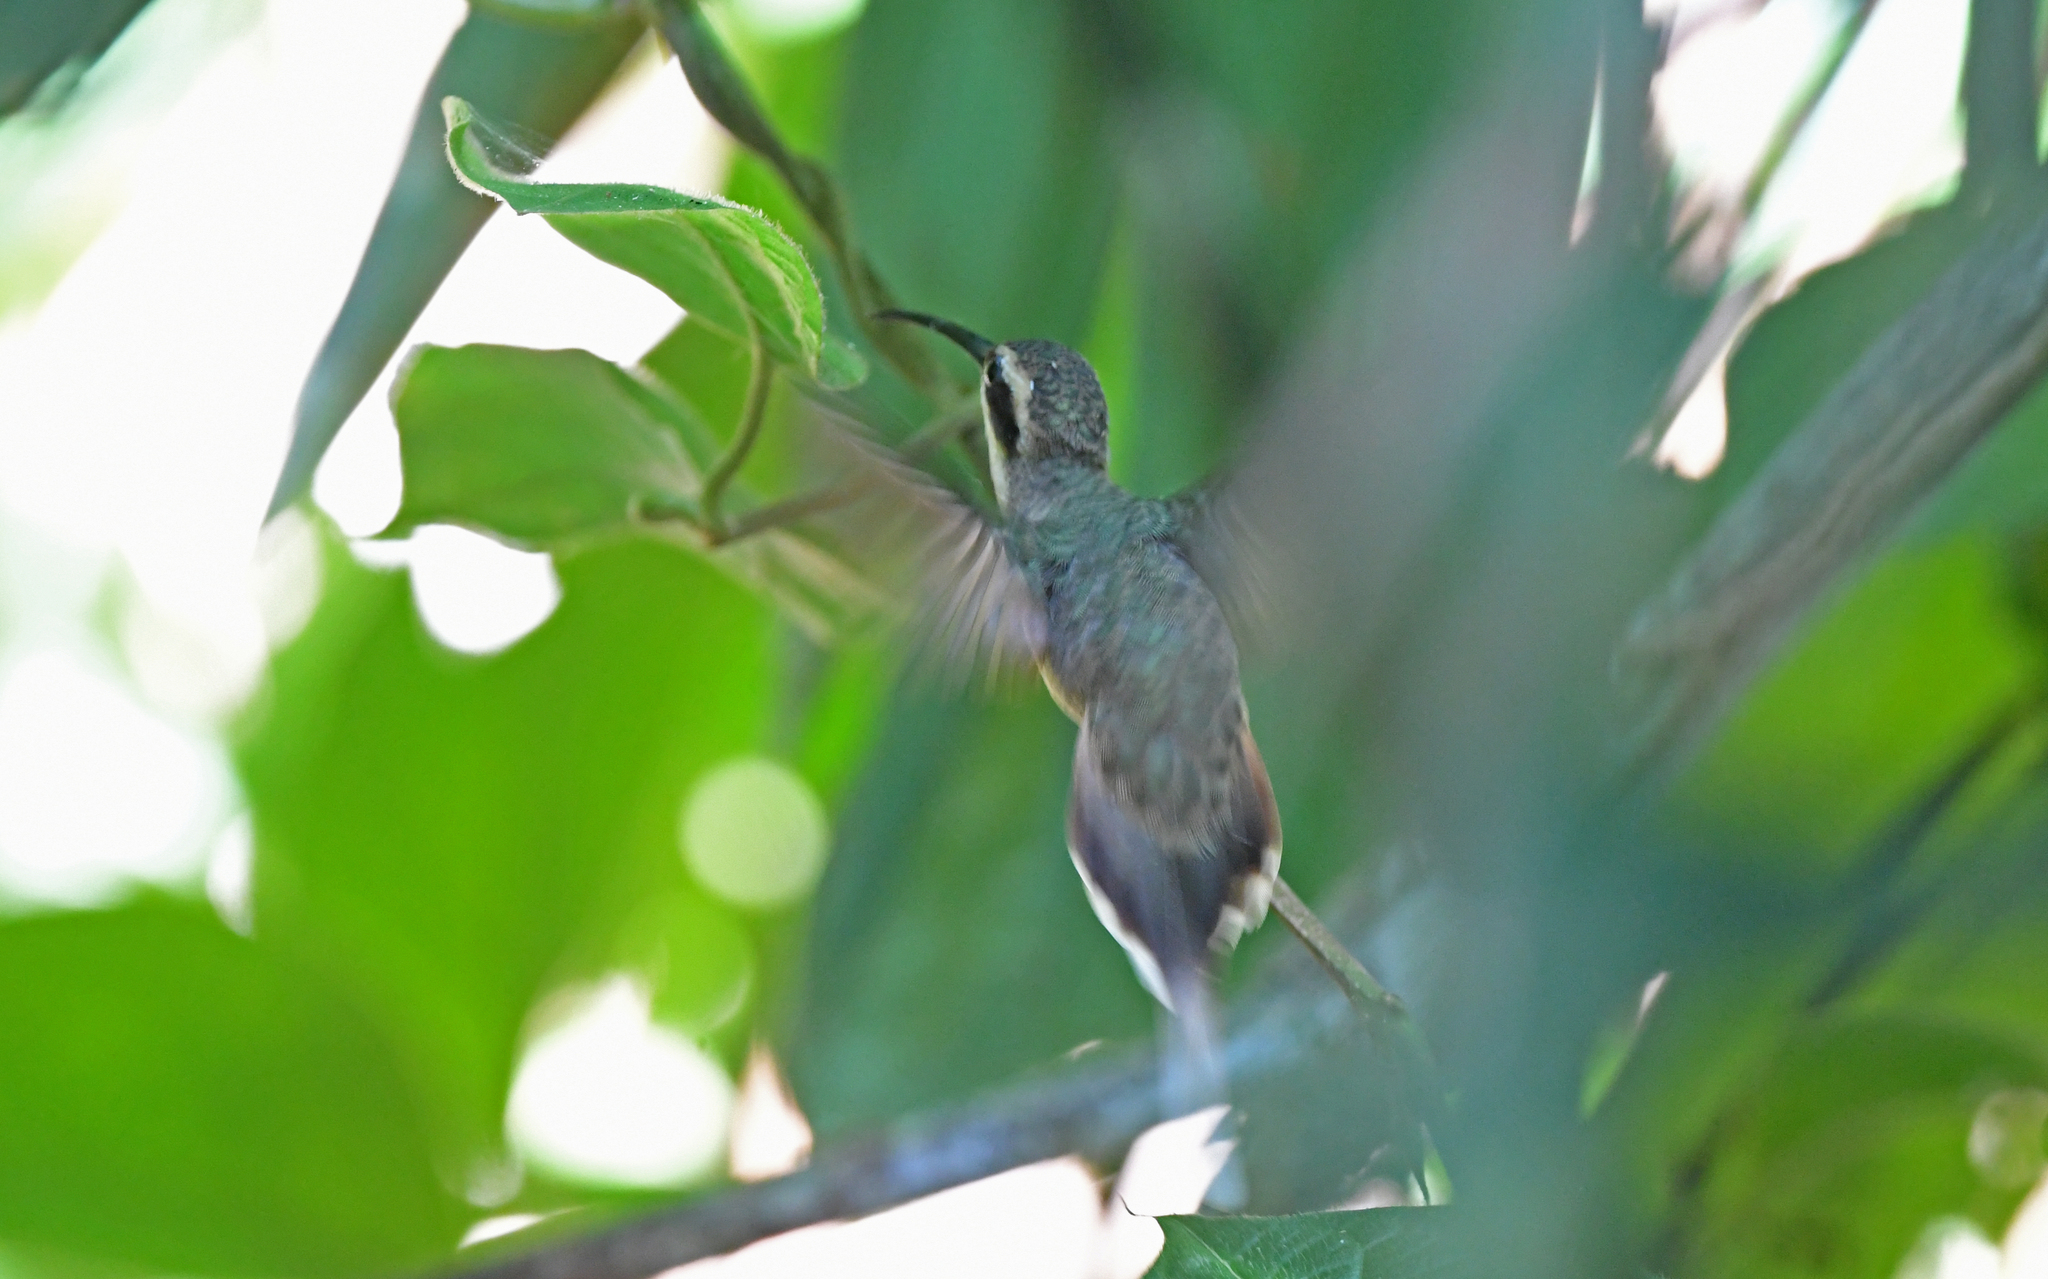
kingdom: Animalia
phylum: Chordata
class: Aves
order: Apodiformes
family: Trochilidae
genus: Phaethornis
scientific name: Phaethornis anthophilus
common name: Pale-bellied hermit
